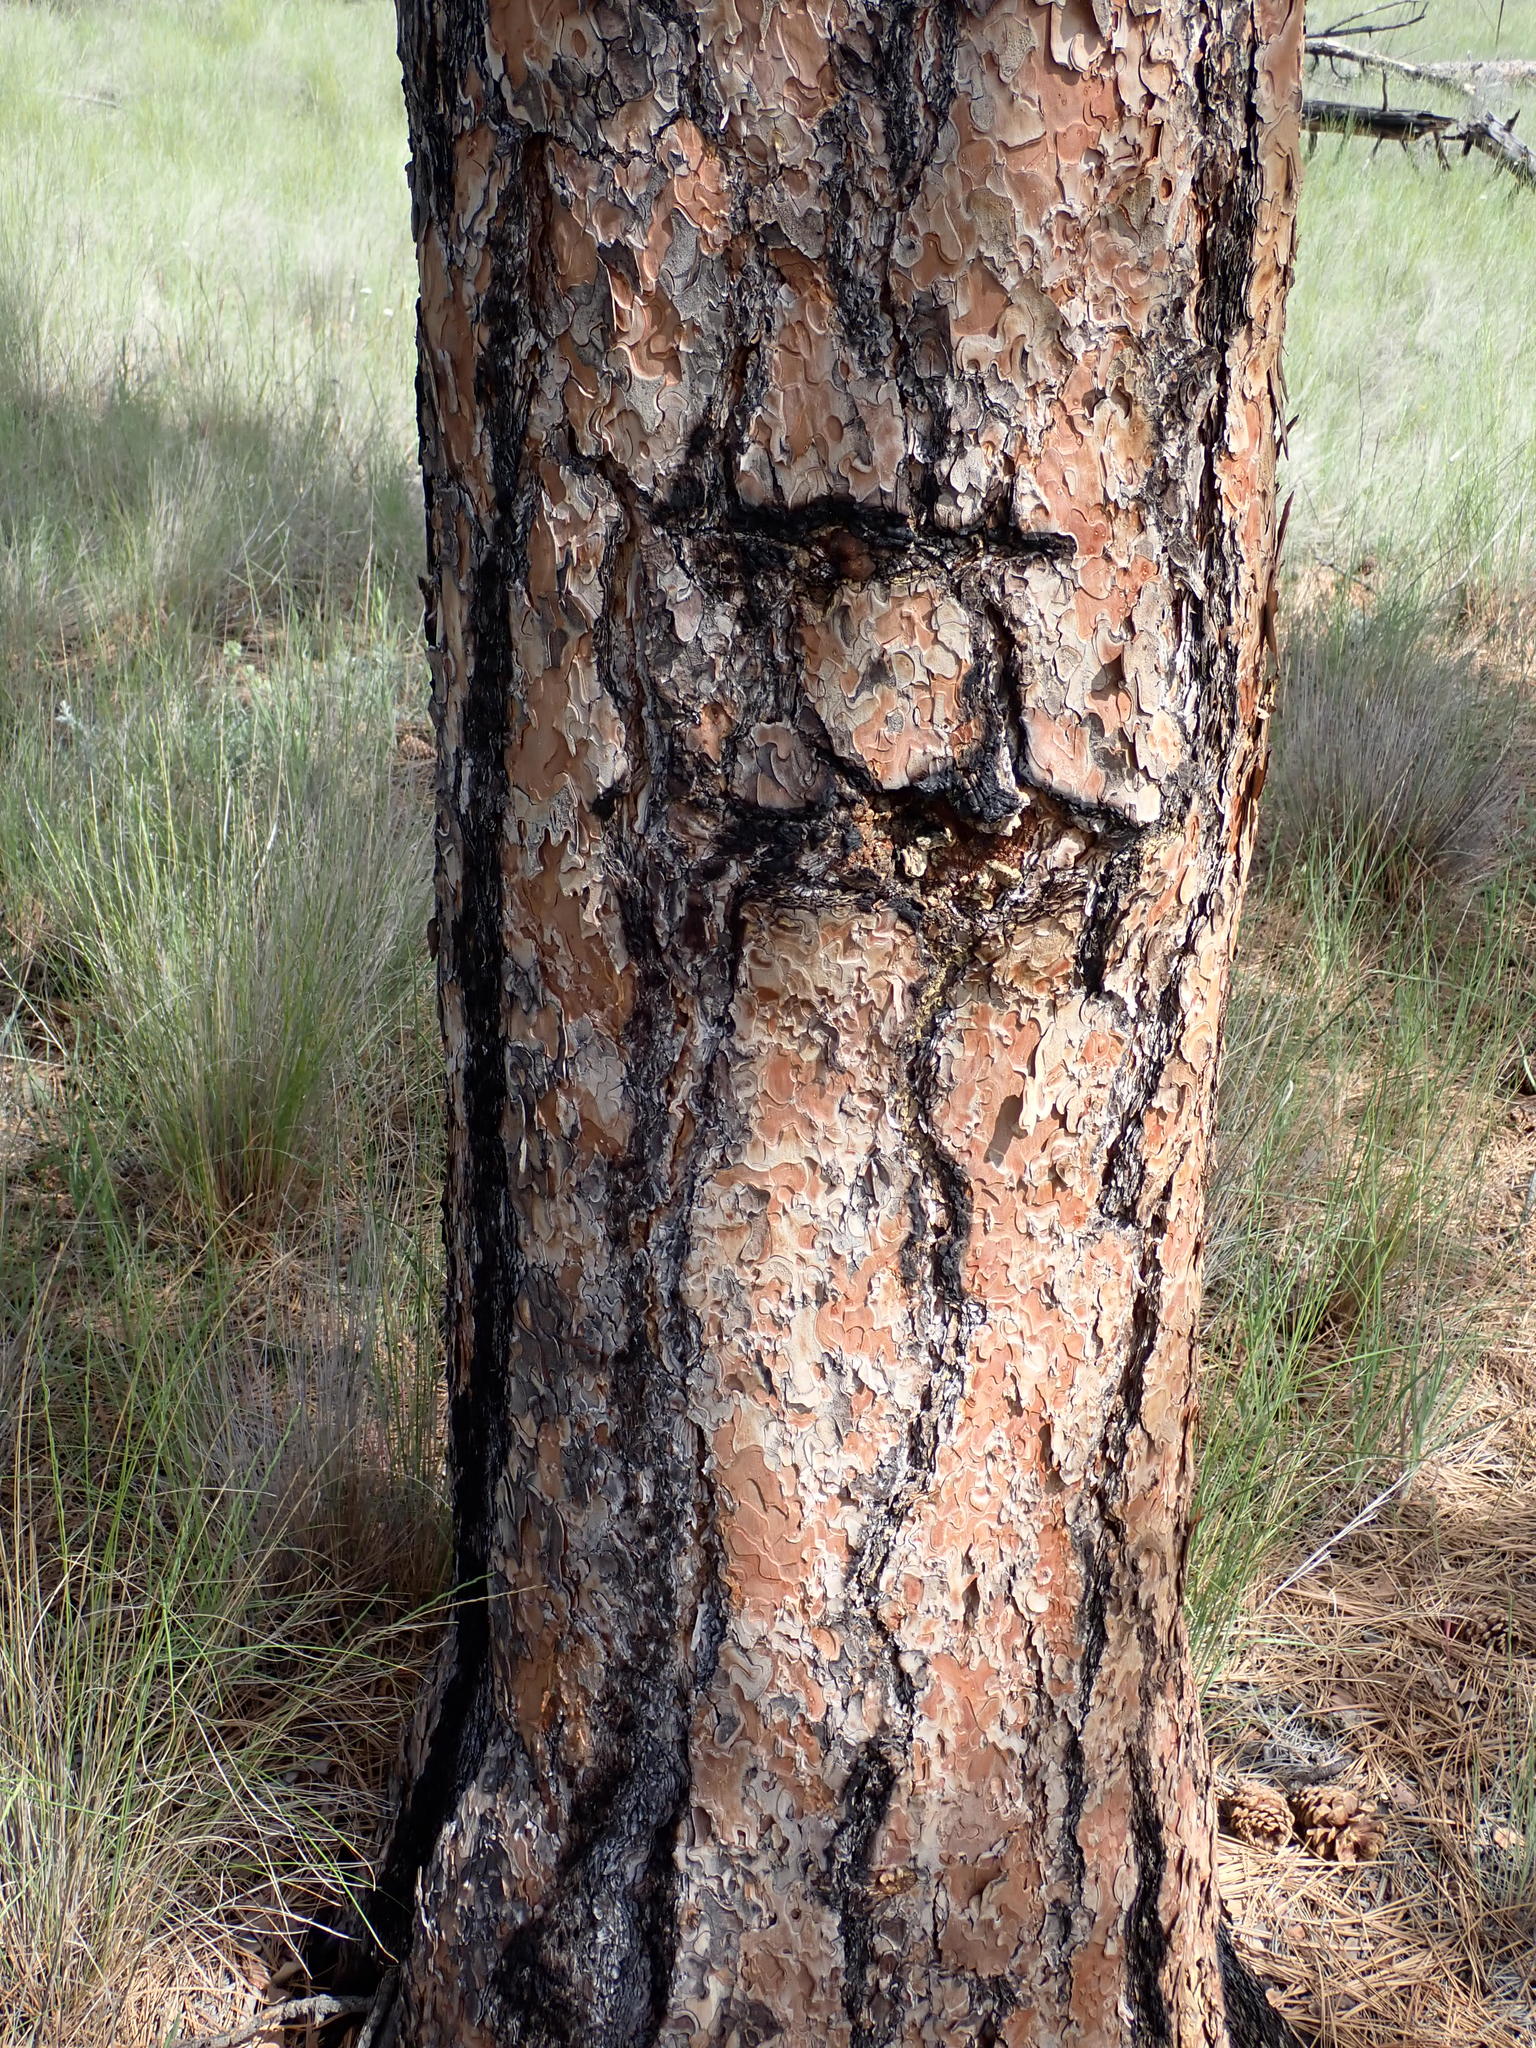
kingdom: Plantae
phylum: Tracheophyta
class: Pinopsida
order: Pinales
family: Pinaceae
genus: Pinus
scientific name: Pinus ponderosa
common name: Western yellow-pine
